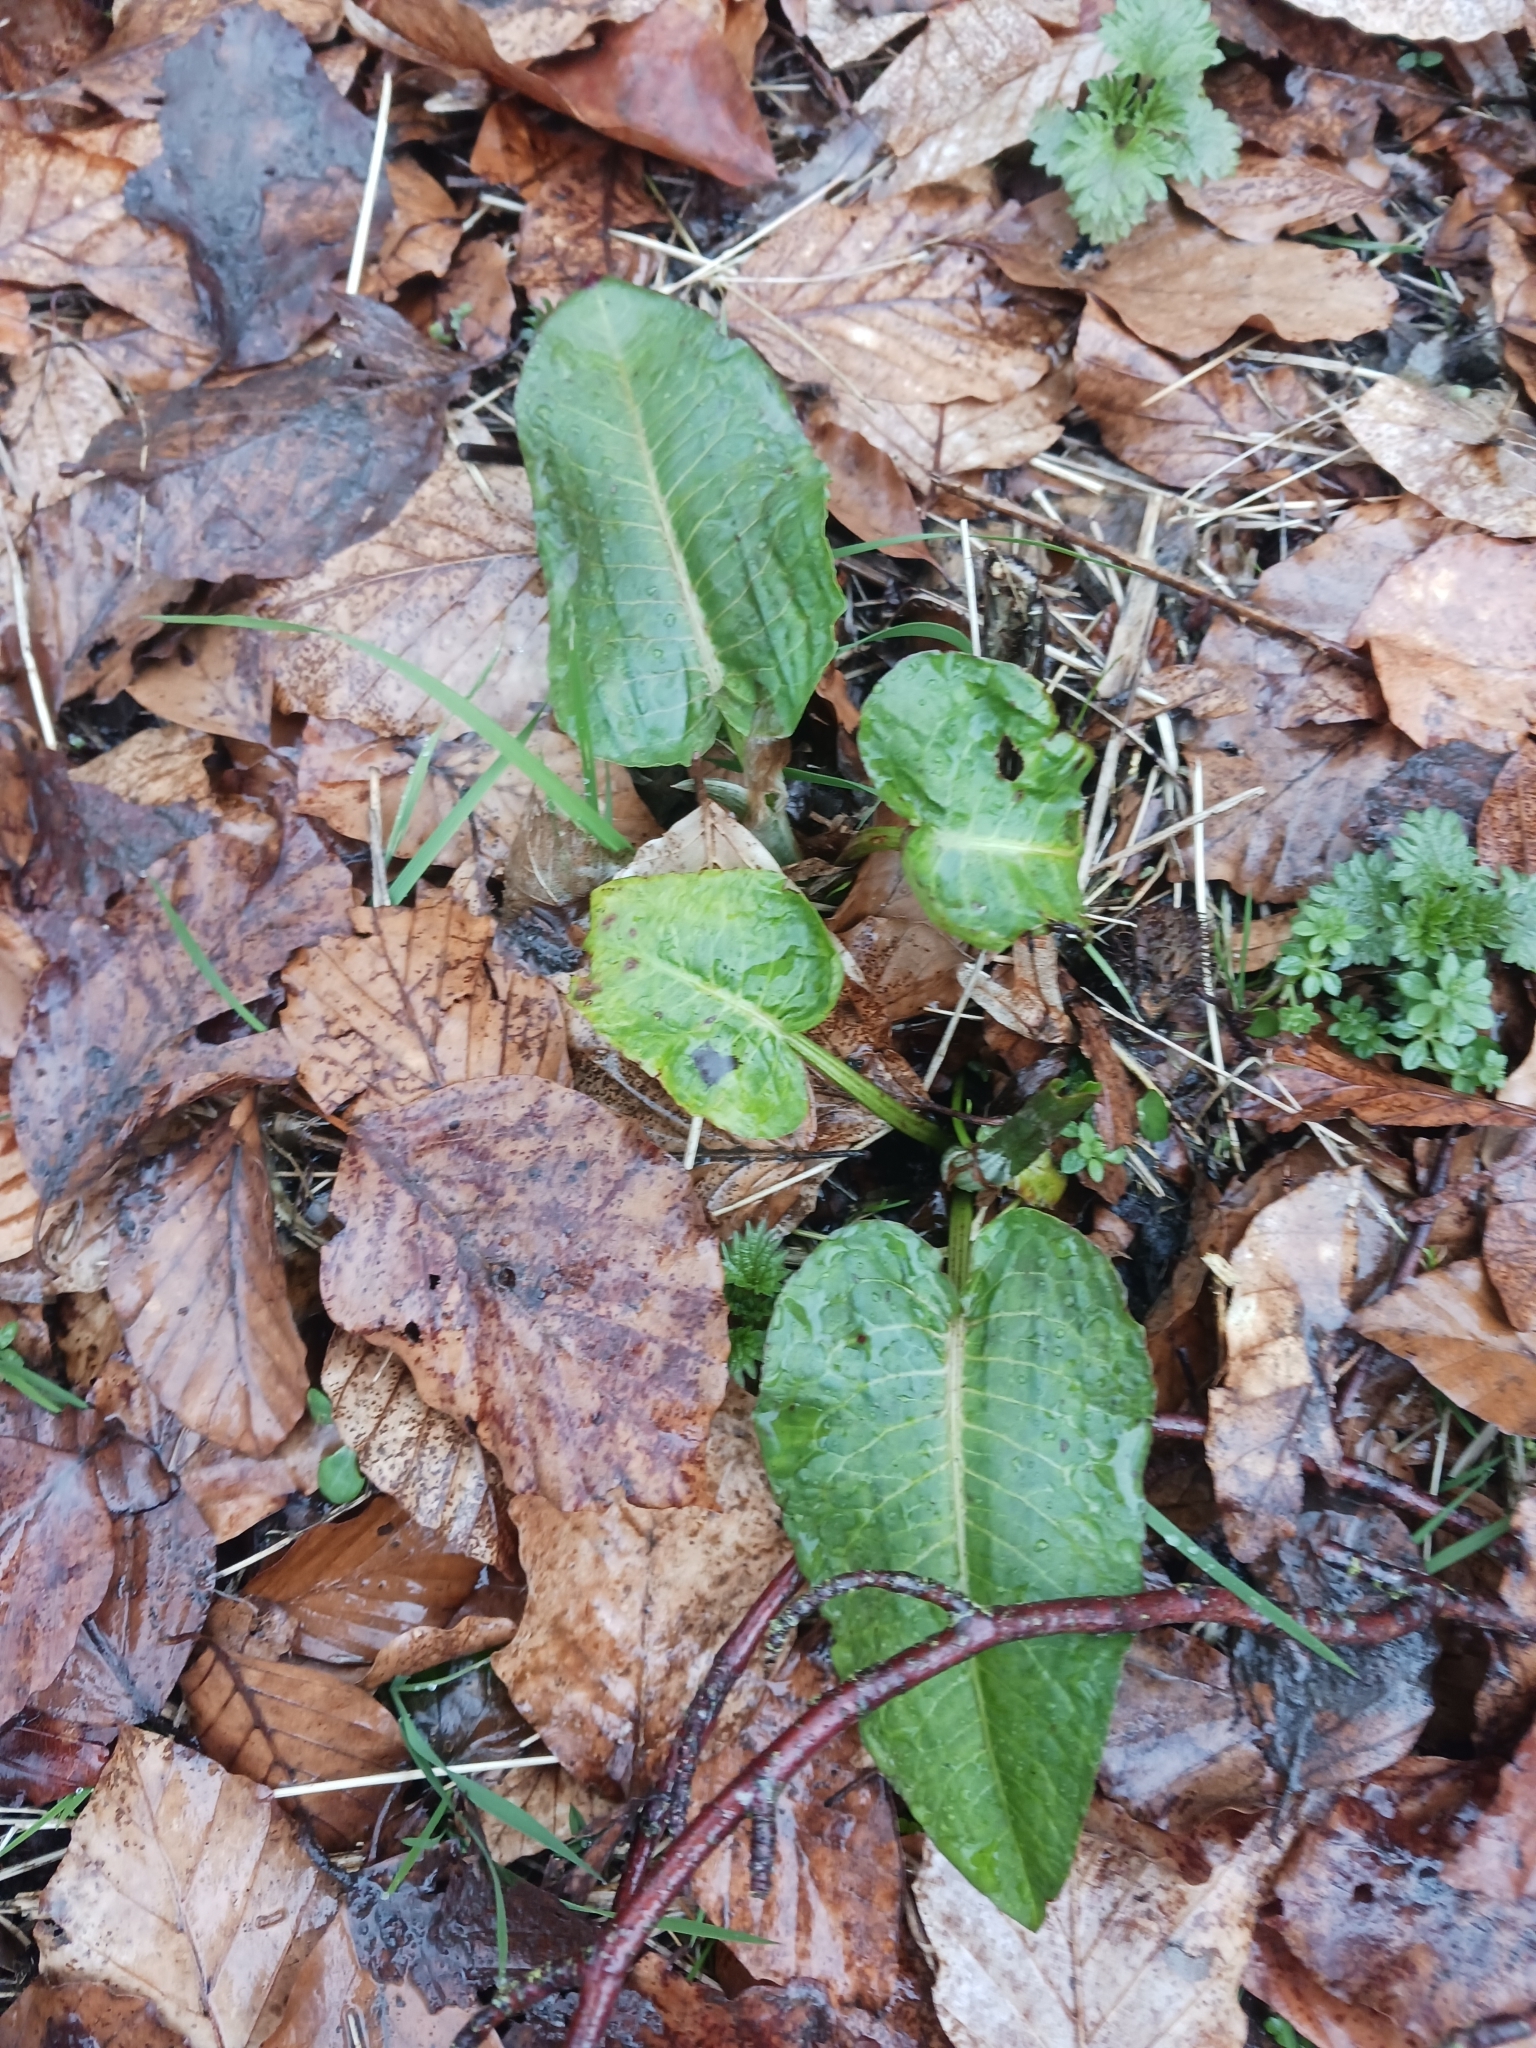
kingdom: Plantae
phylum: Tracheophyta
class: Magnoliopsida
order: Caryophyllales
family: Polygonaceae
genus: Rumex
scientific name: Rumex obtusifolius
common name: Bitter dock
